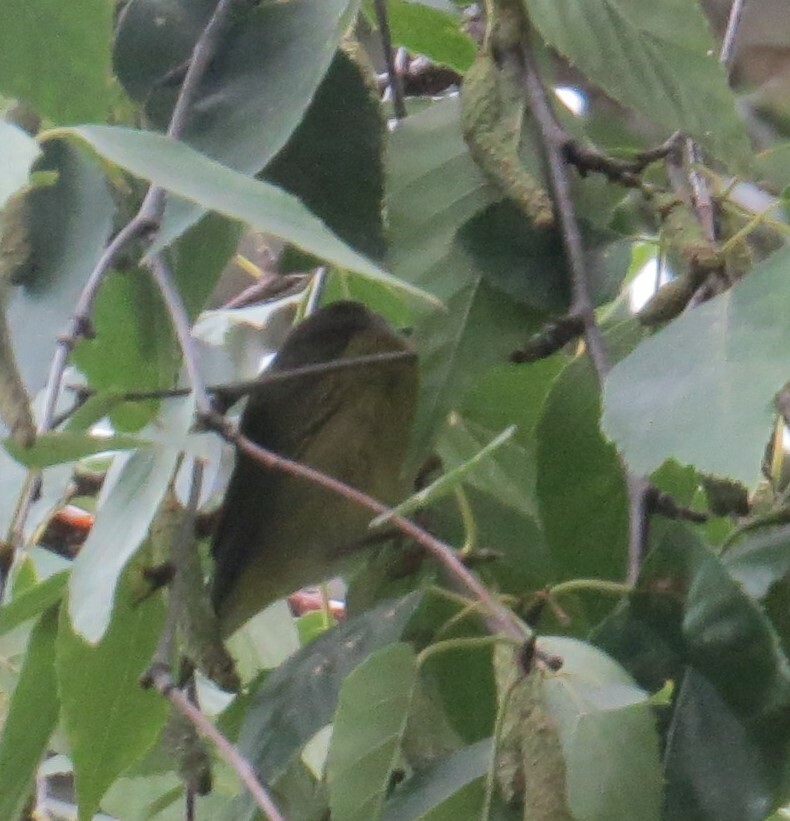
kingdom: Animalia
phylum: Chordata
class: Aves
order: Passeriformes
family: Parulidae
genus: Leiothlypis
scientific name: Leiothlypis ruficapilla
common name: Nashville warbler
